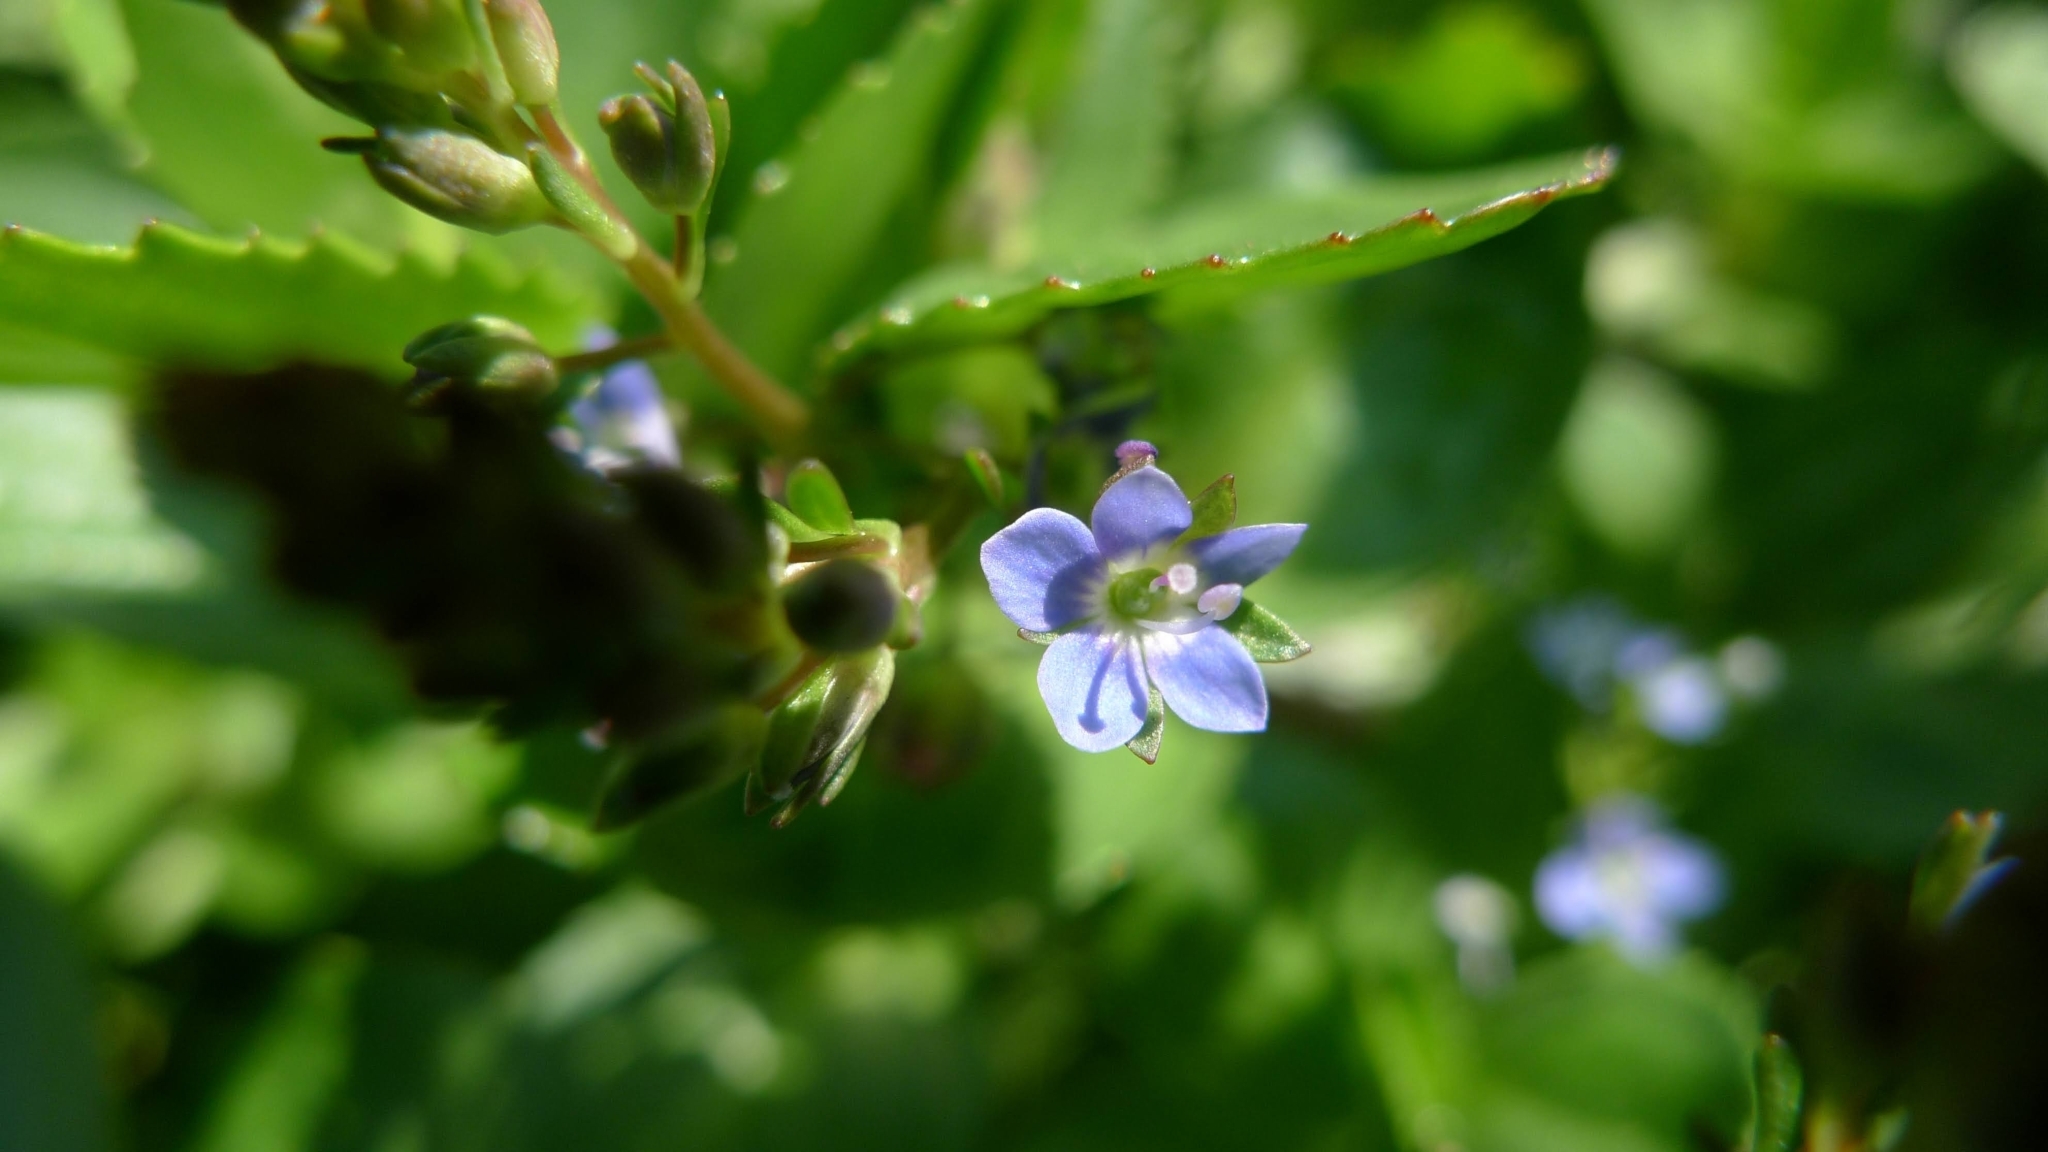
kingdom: Plantae
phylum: Tracheophyta
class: Magnoliopsida
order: Lamiales
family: Plantaginaceae
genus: Veronica
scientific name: Veronica beccabunga
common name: Brooklime
